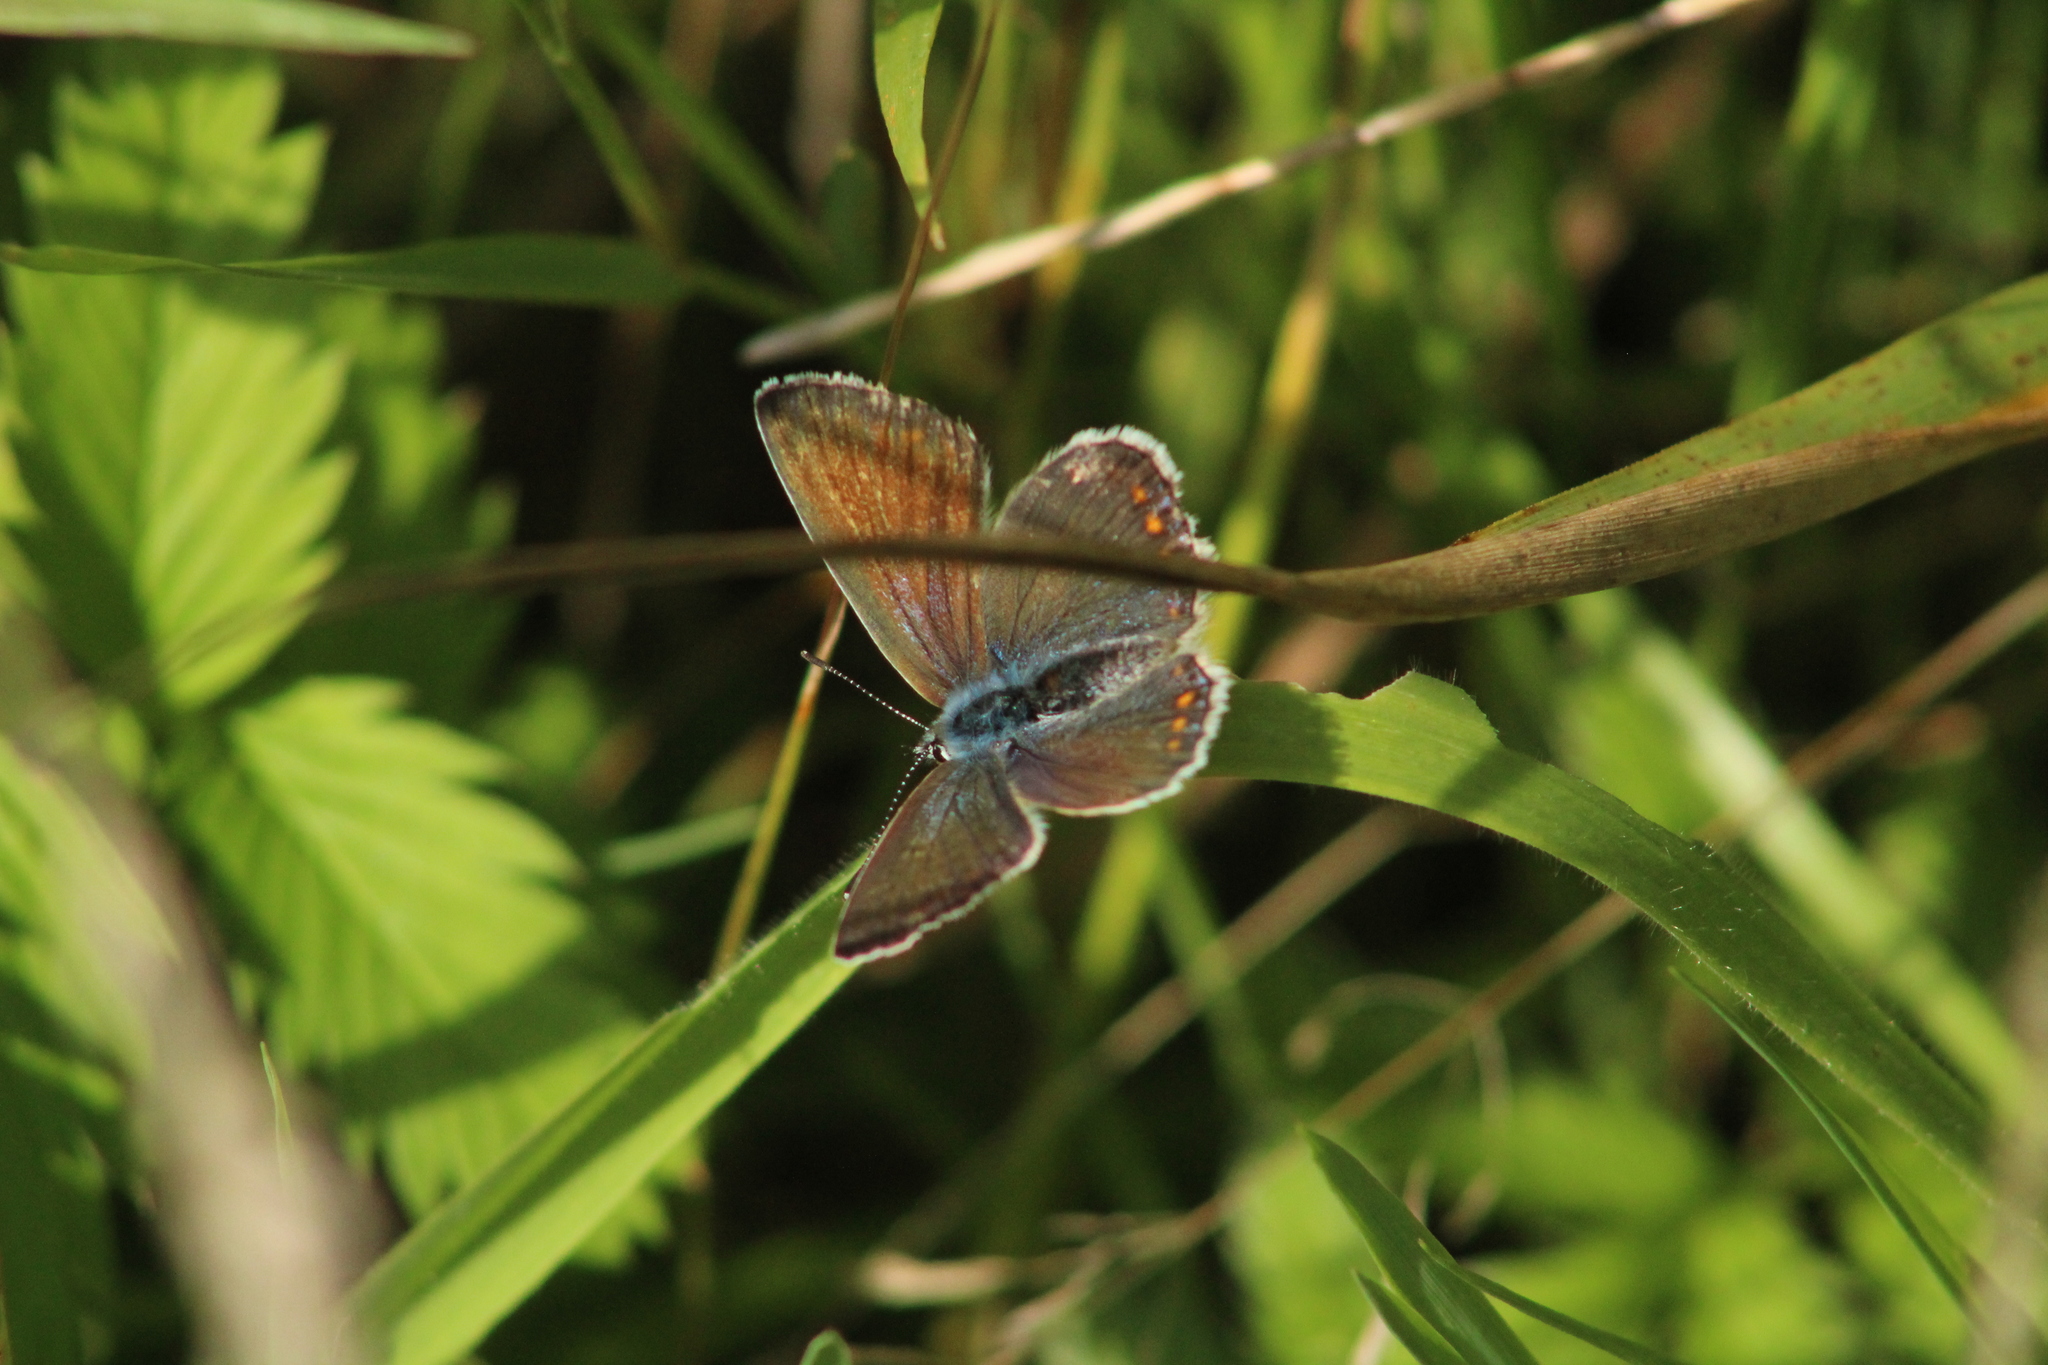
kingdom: Animalia
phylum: Arthropoda
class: Insecta
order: Lepidoptera
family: Lycaenidae
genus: Polyommatus
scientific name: Polyommatus icarus
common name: Common blue
